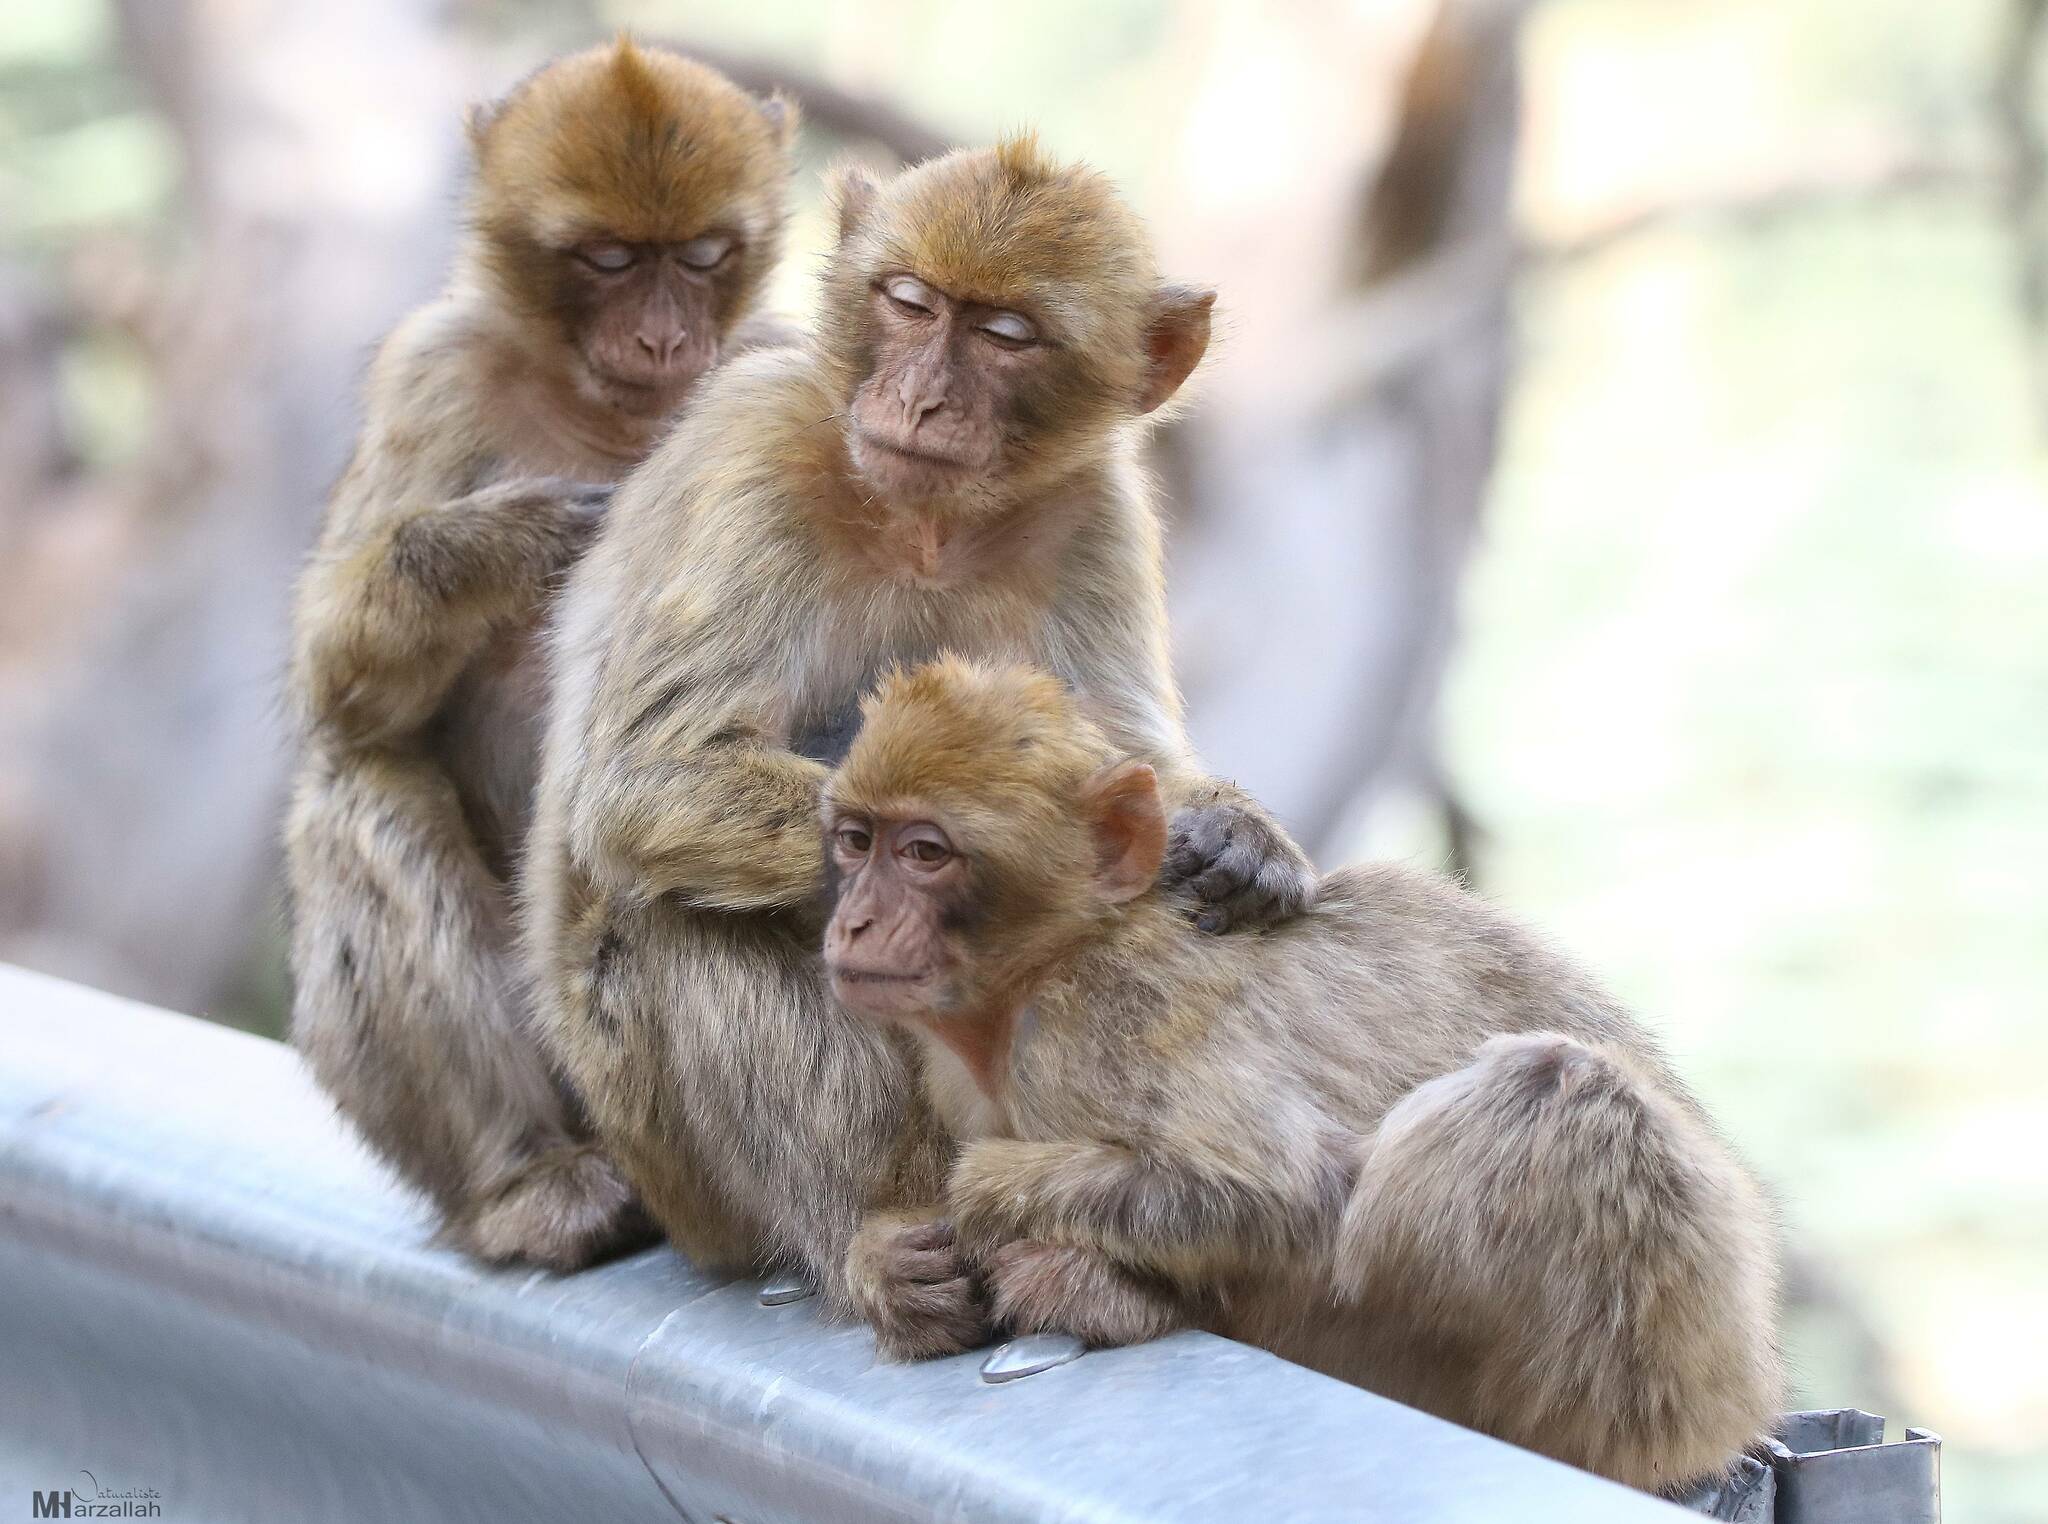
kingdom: Animalia
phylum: Chordata
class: Mammalia
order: Primates
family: Cercopithecidae
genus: Macaca
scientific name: Macaca sylvanus
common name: Barbary macaque
